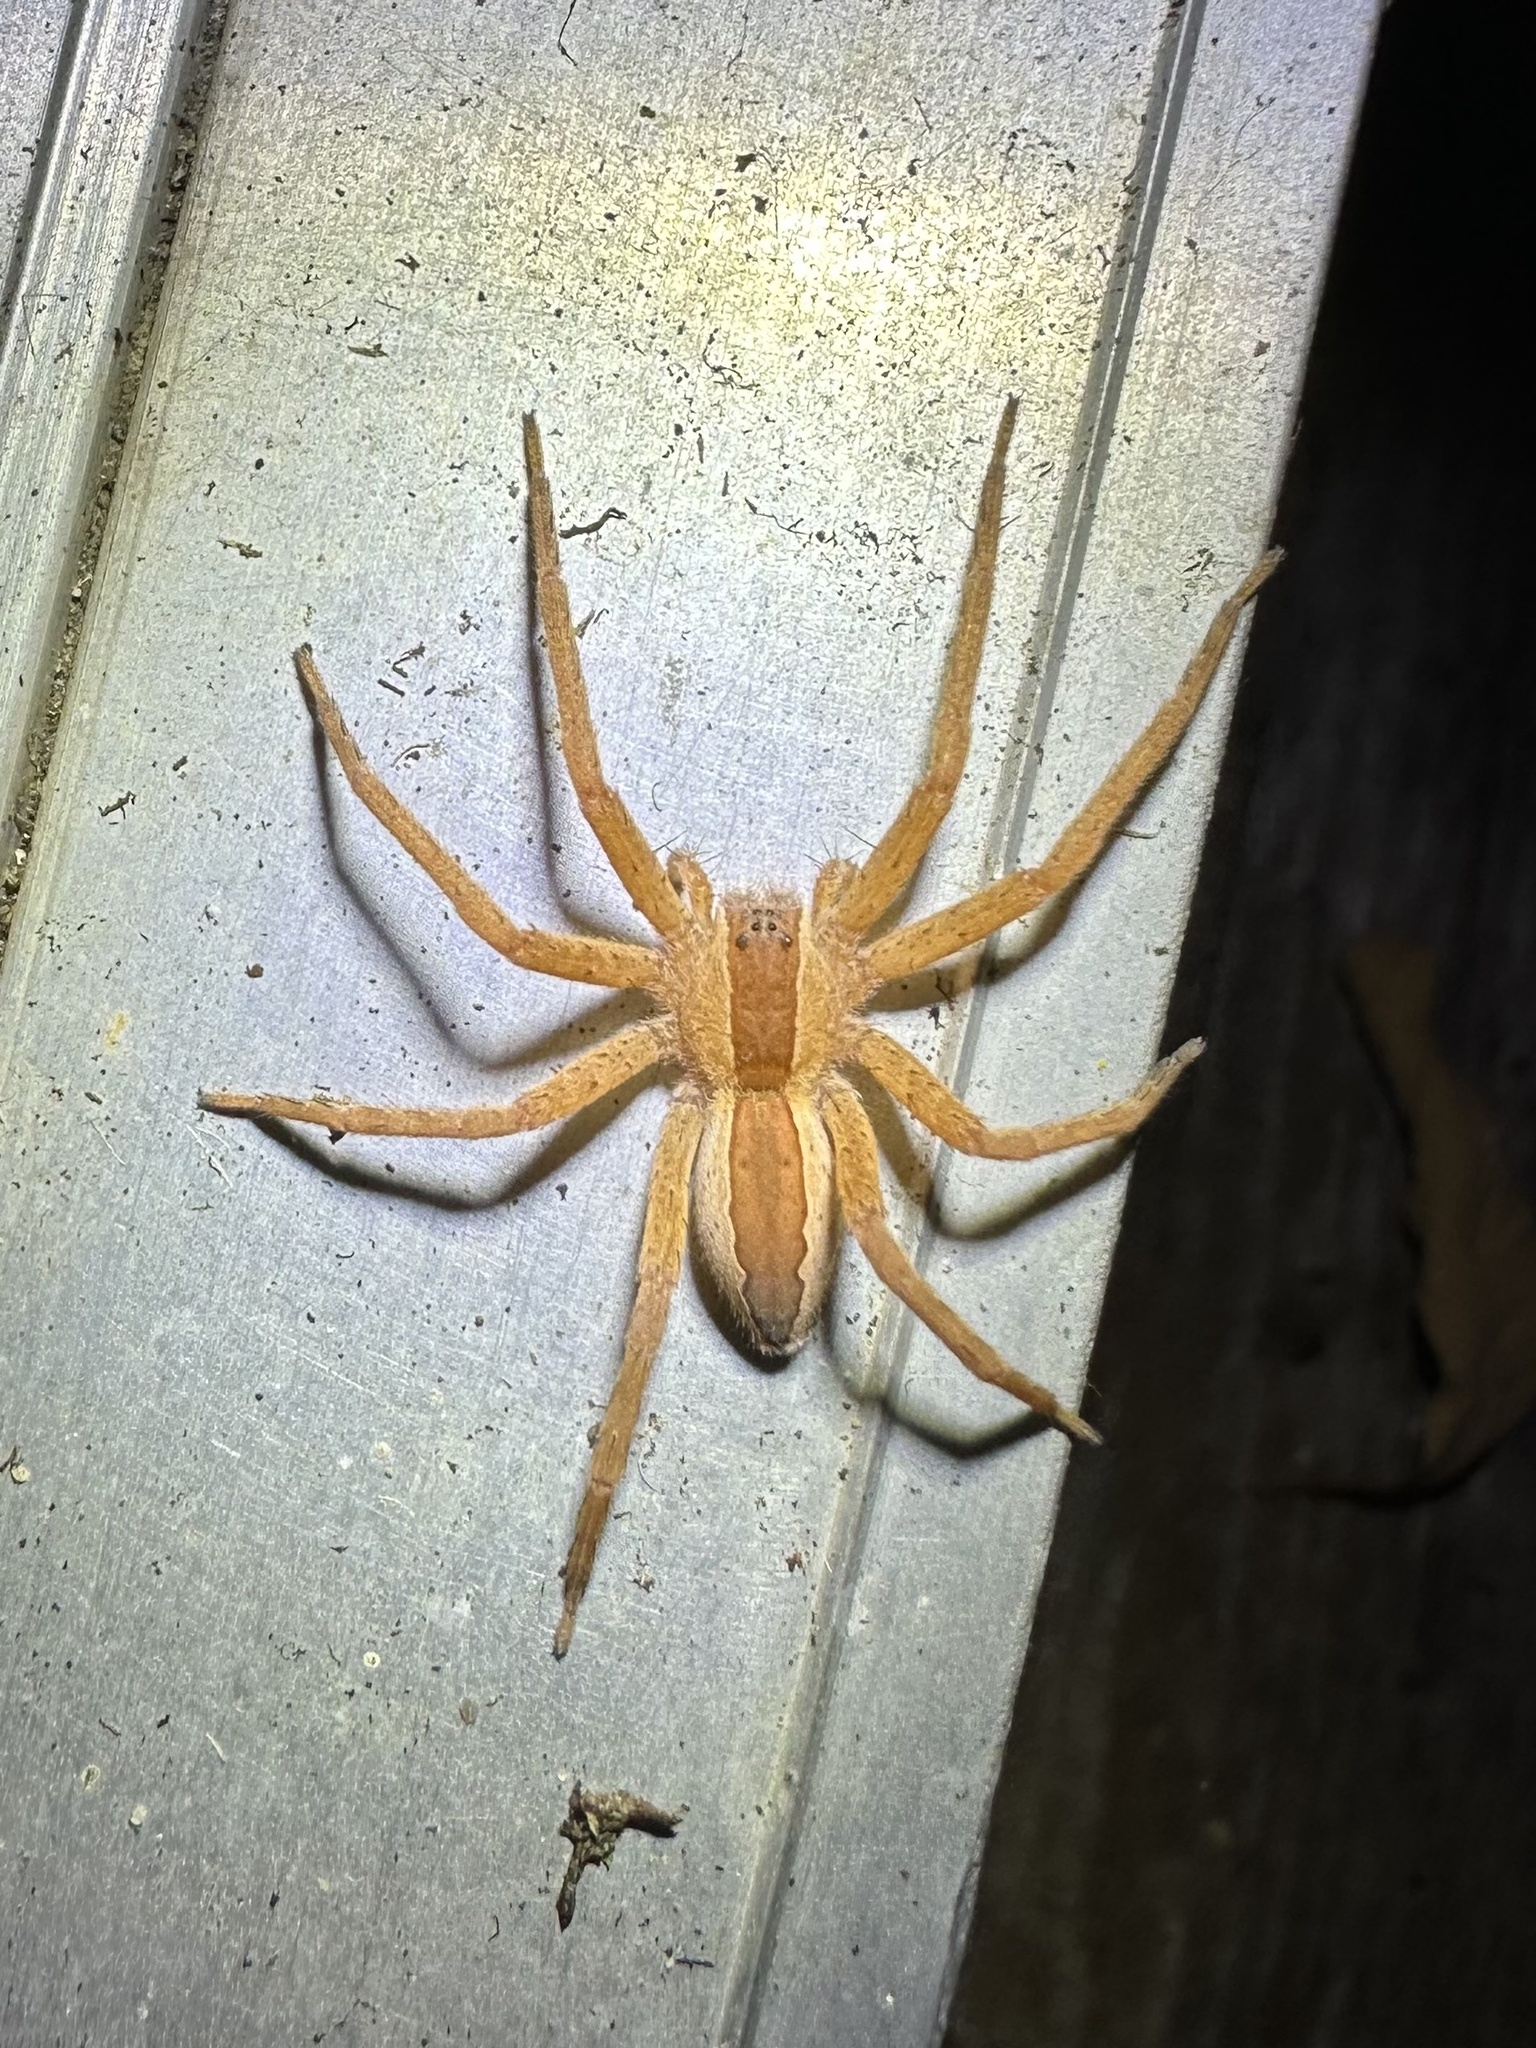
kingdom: Animalia
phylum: Arthropoda
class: Arachnida
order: Araneae
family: Pisauridae
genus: Pisaurina
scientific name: Pisaurina mira
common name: American nursery web spider
